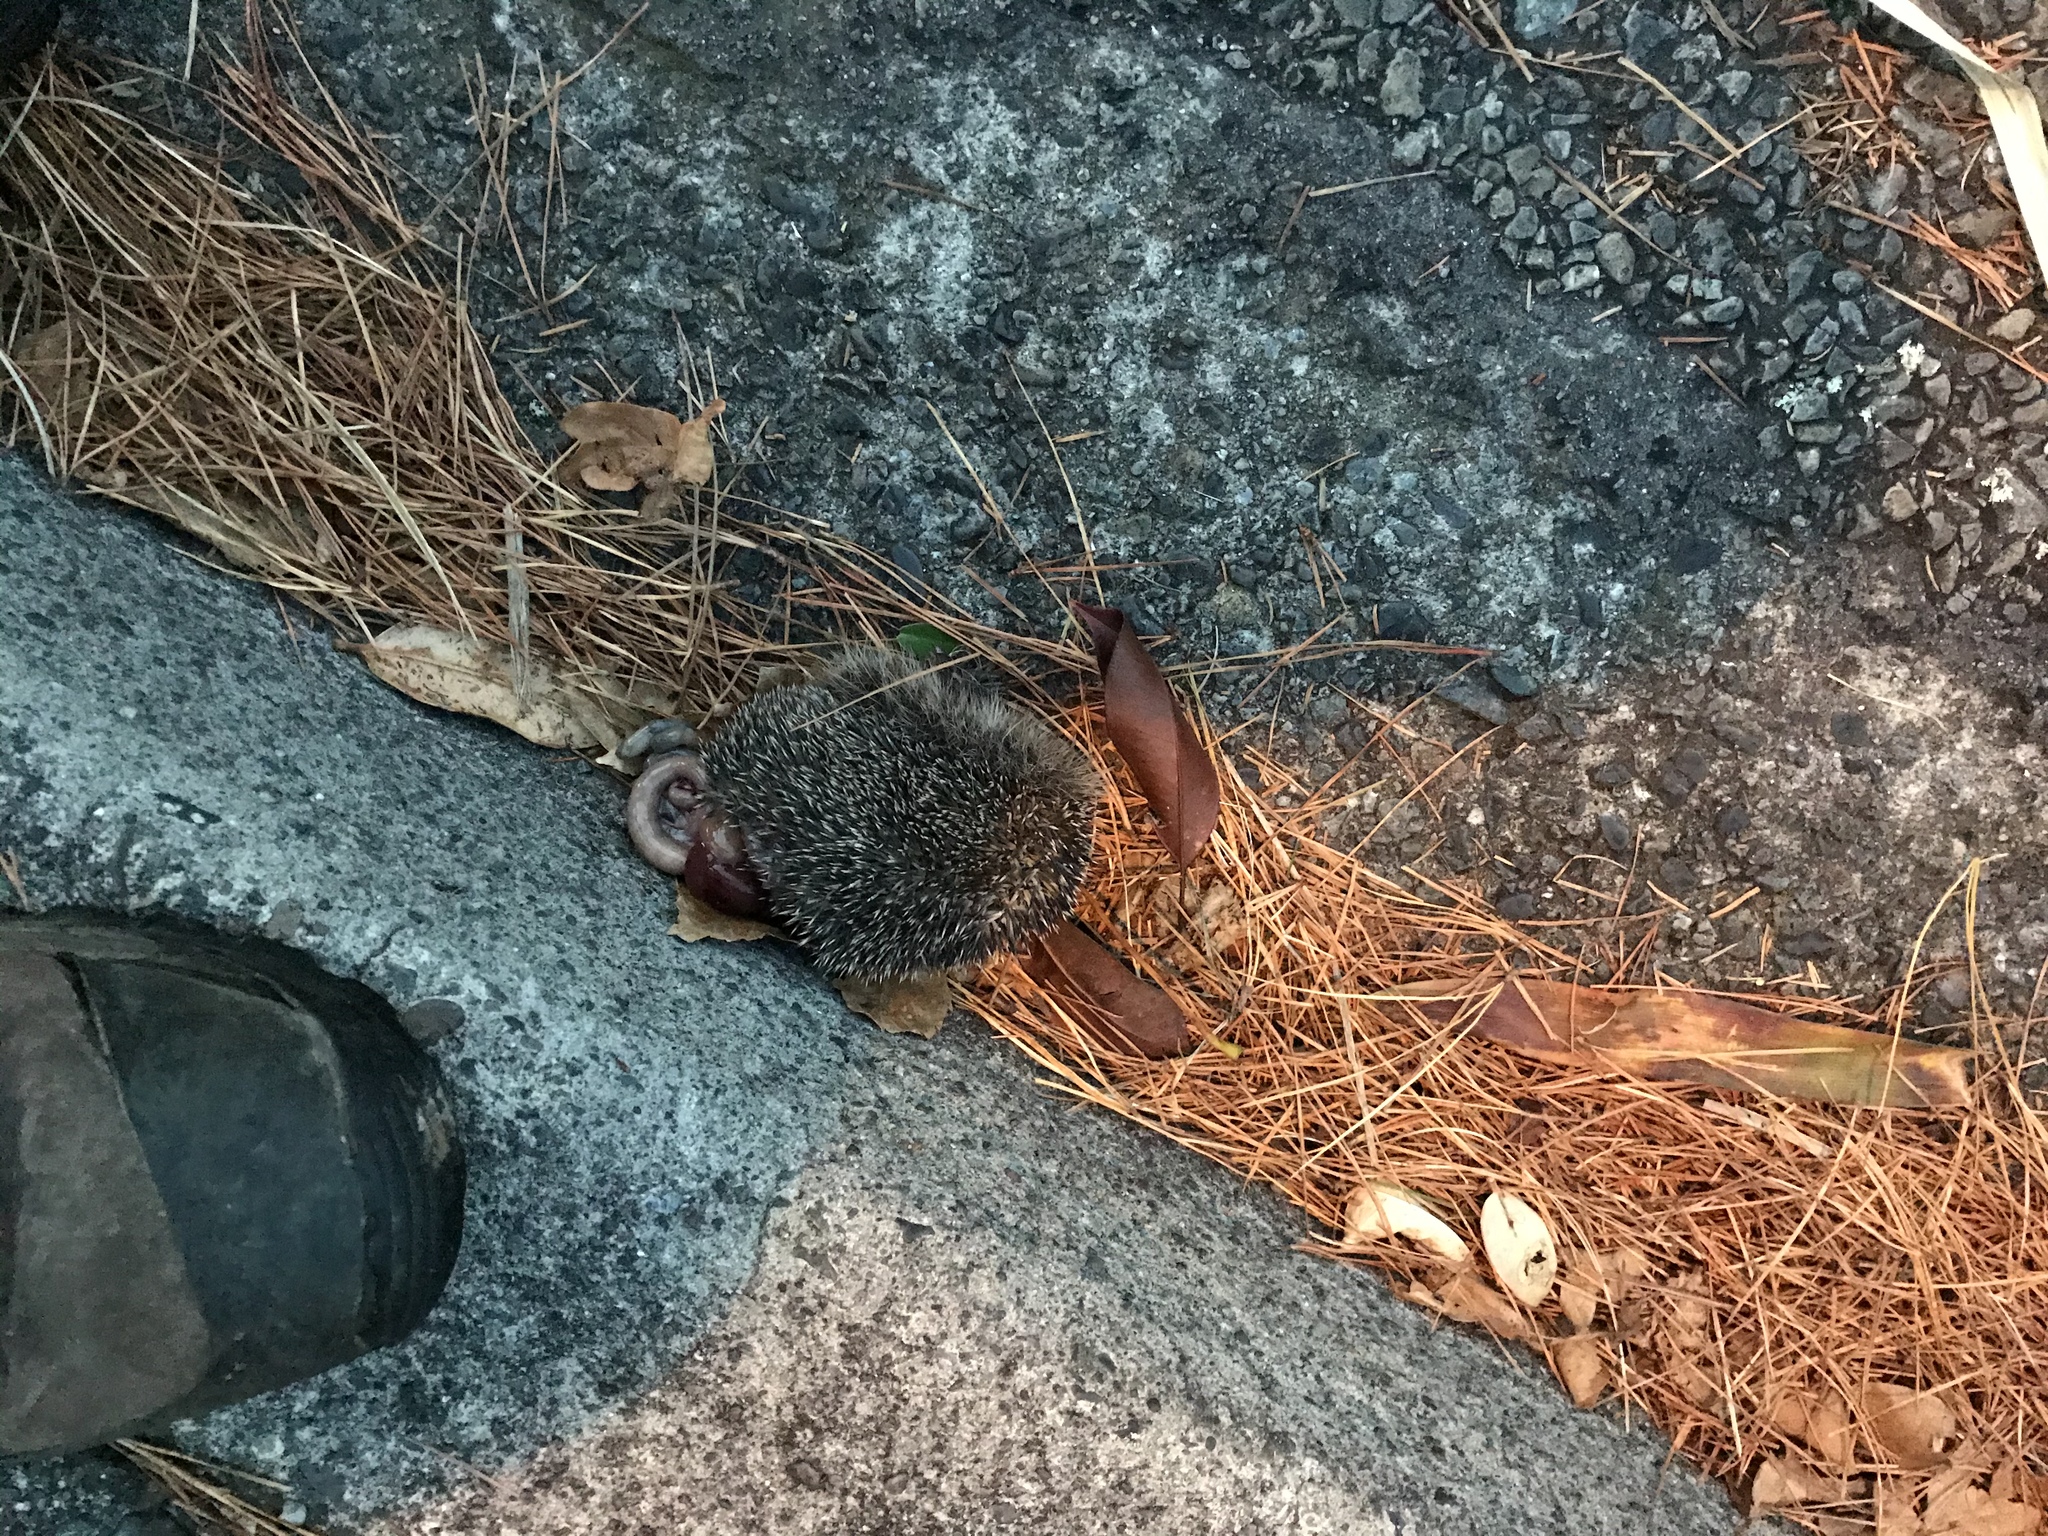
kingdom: Animalia
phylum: Chordata
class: Mammalia
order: Erinaceomorpha
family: Erinaceidae
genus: Erinaceus
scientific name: Erinaceus europaeus
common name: West european hedgehog
